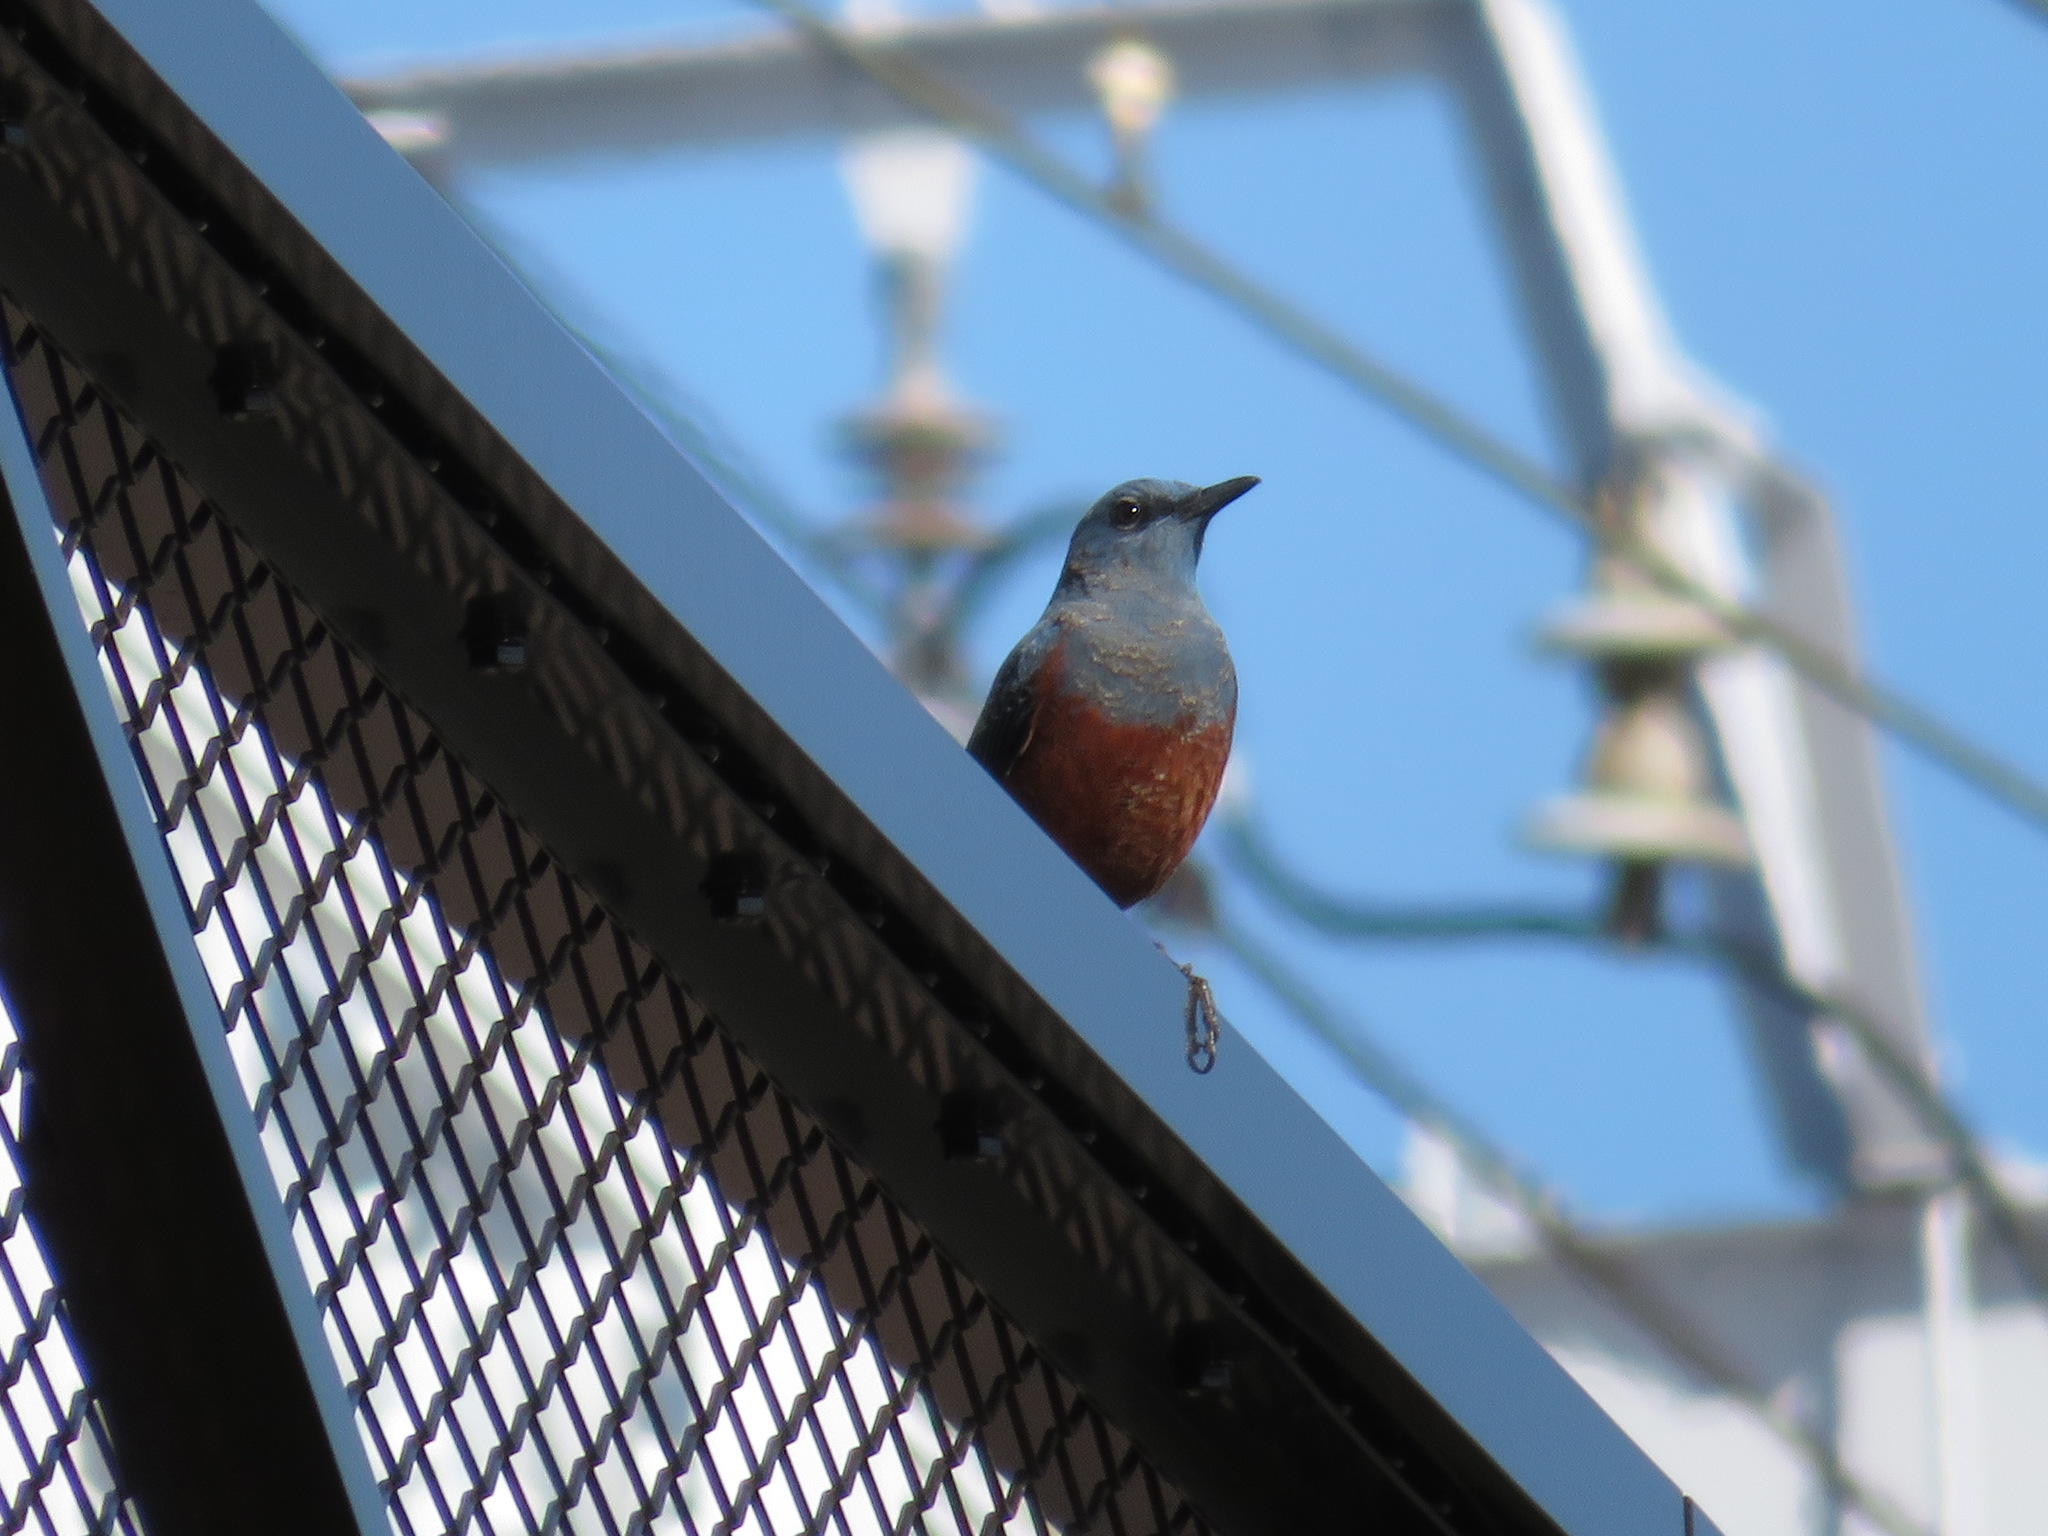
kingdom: Animalia
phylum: Chordata
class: Aves
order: Passeriformes
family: Muscicapidae
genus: Monticola
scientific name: Monticola solitarius
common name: Blue rock thrush
